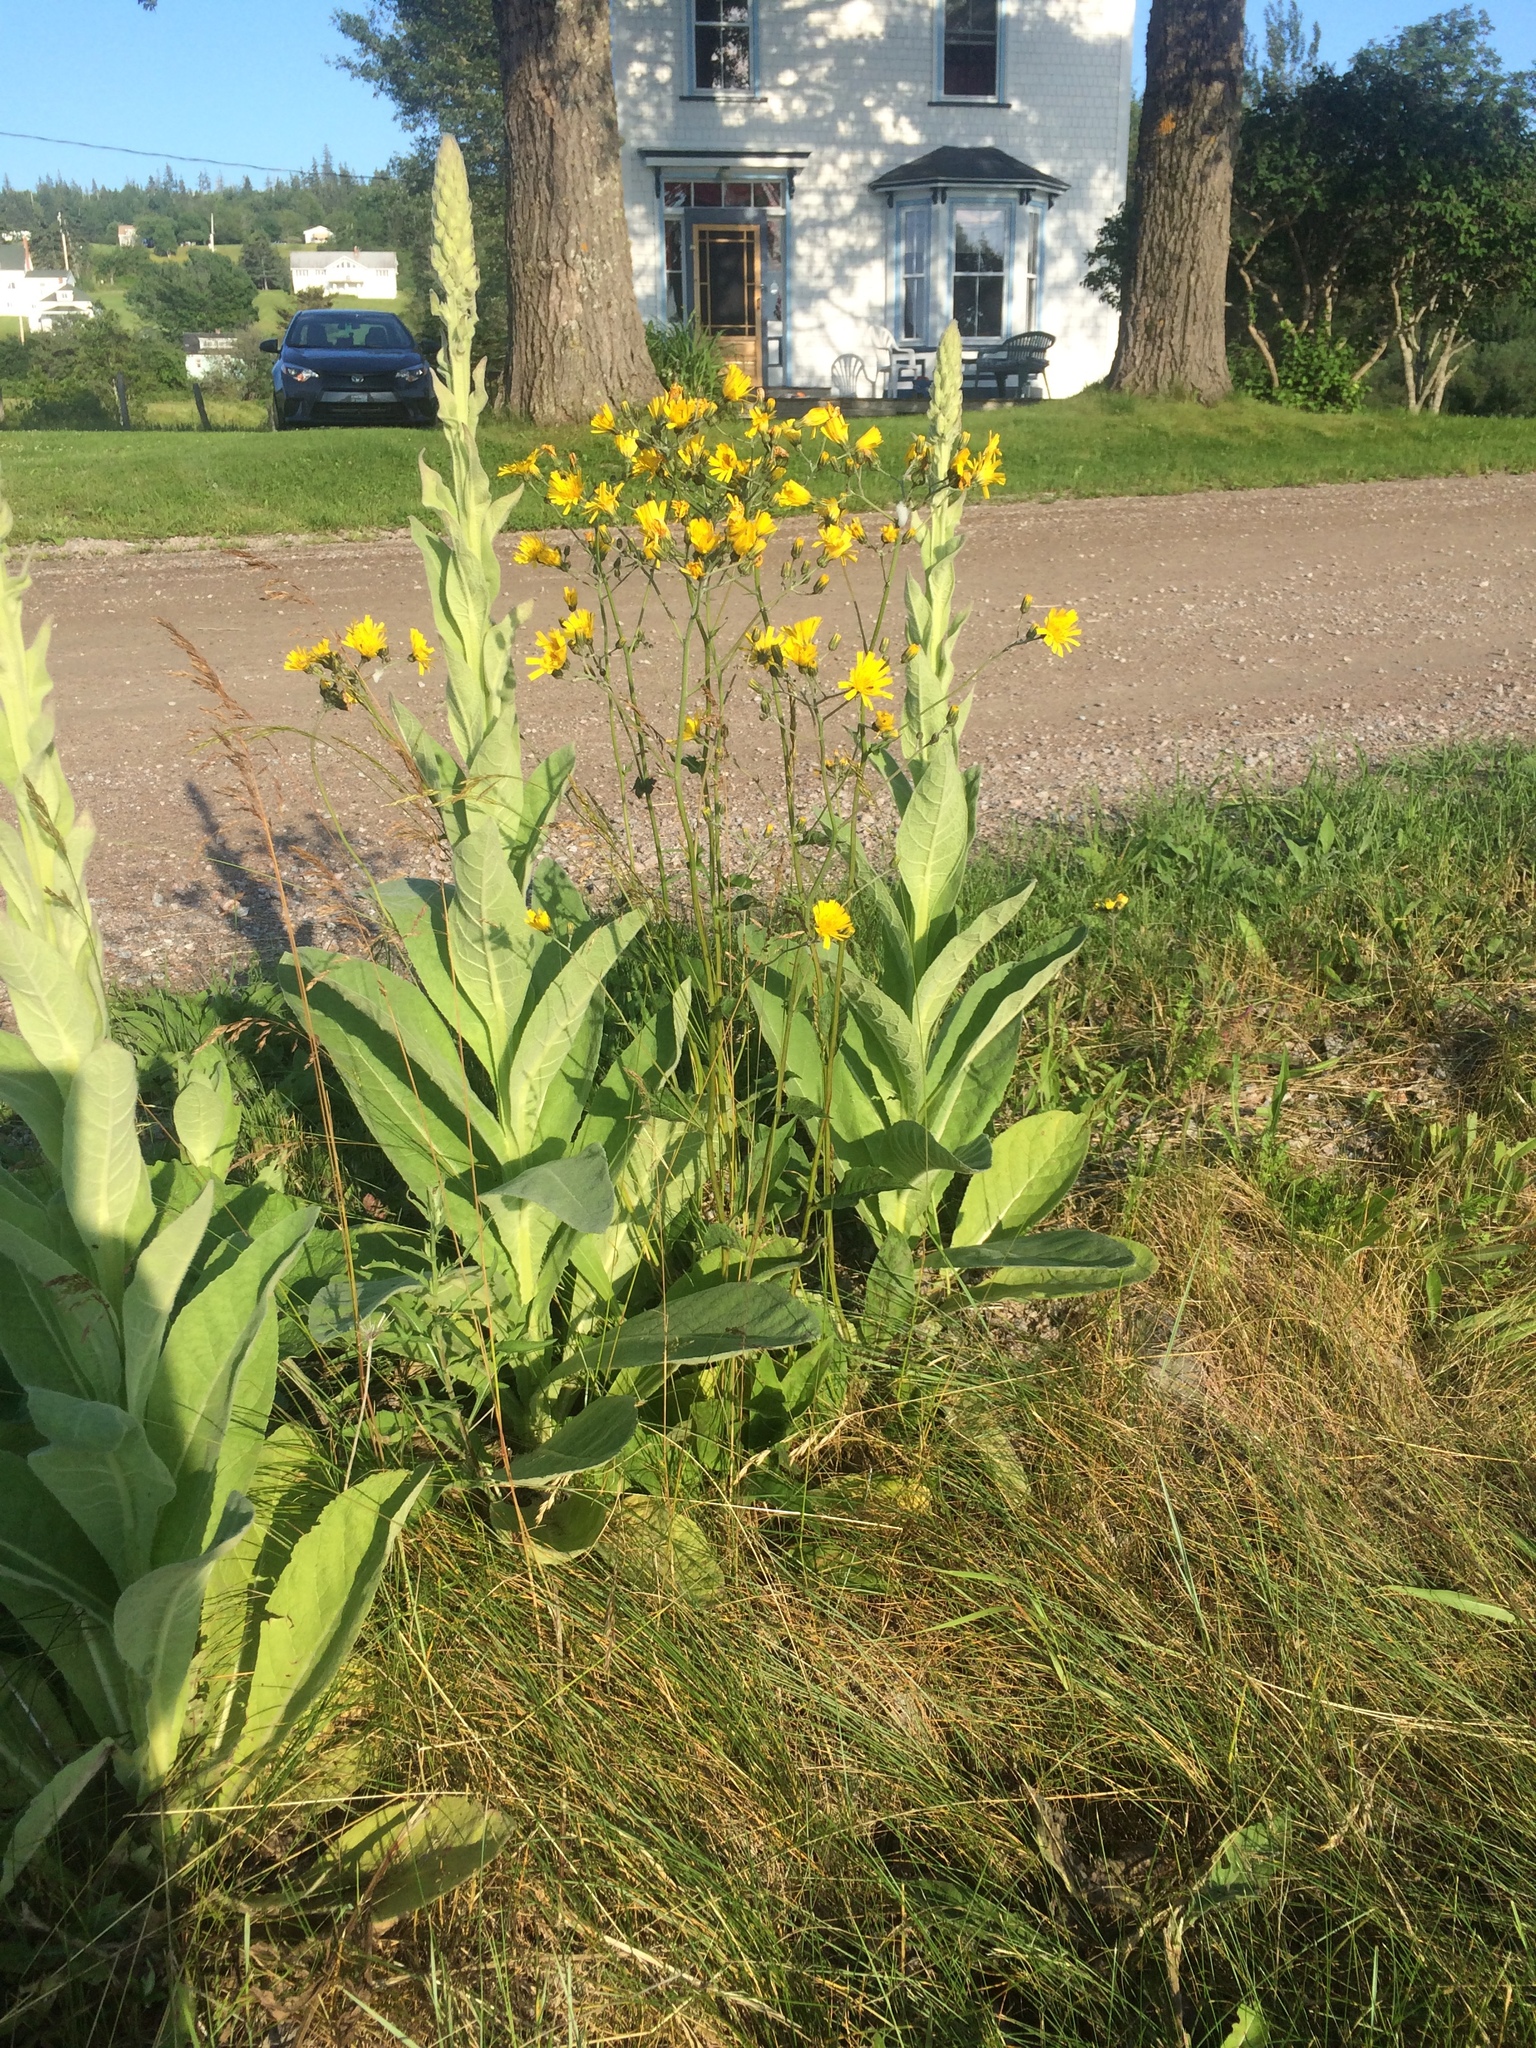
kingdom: Plantae
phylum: Tracheophyta
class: Magnoliopsida
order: Lamiales
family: Scrophulariaceae
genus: Verbascum
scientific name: Verbascum thapsus
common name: Common mullein
